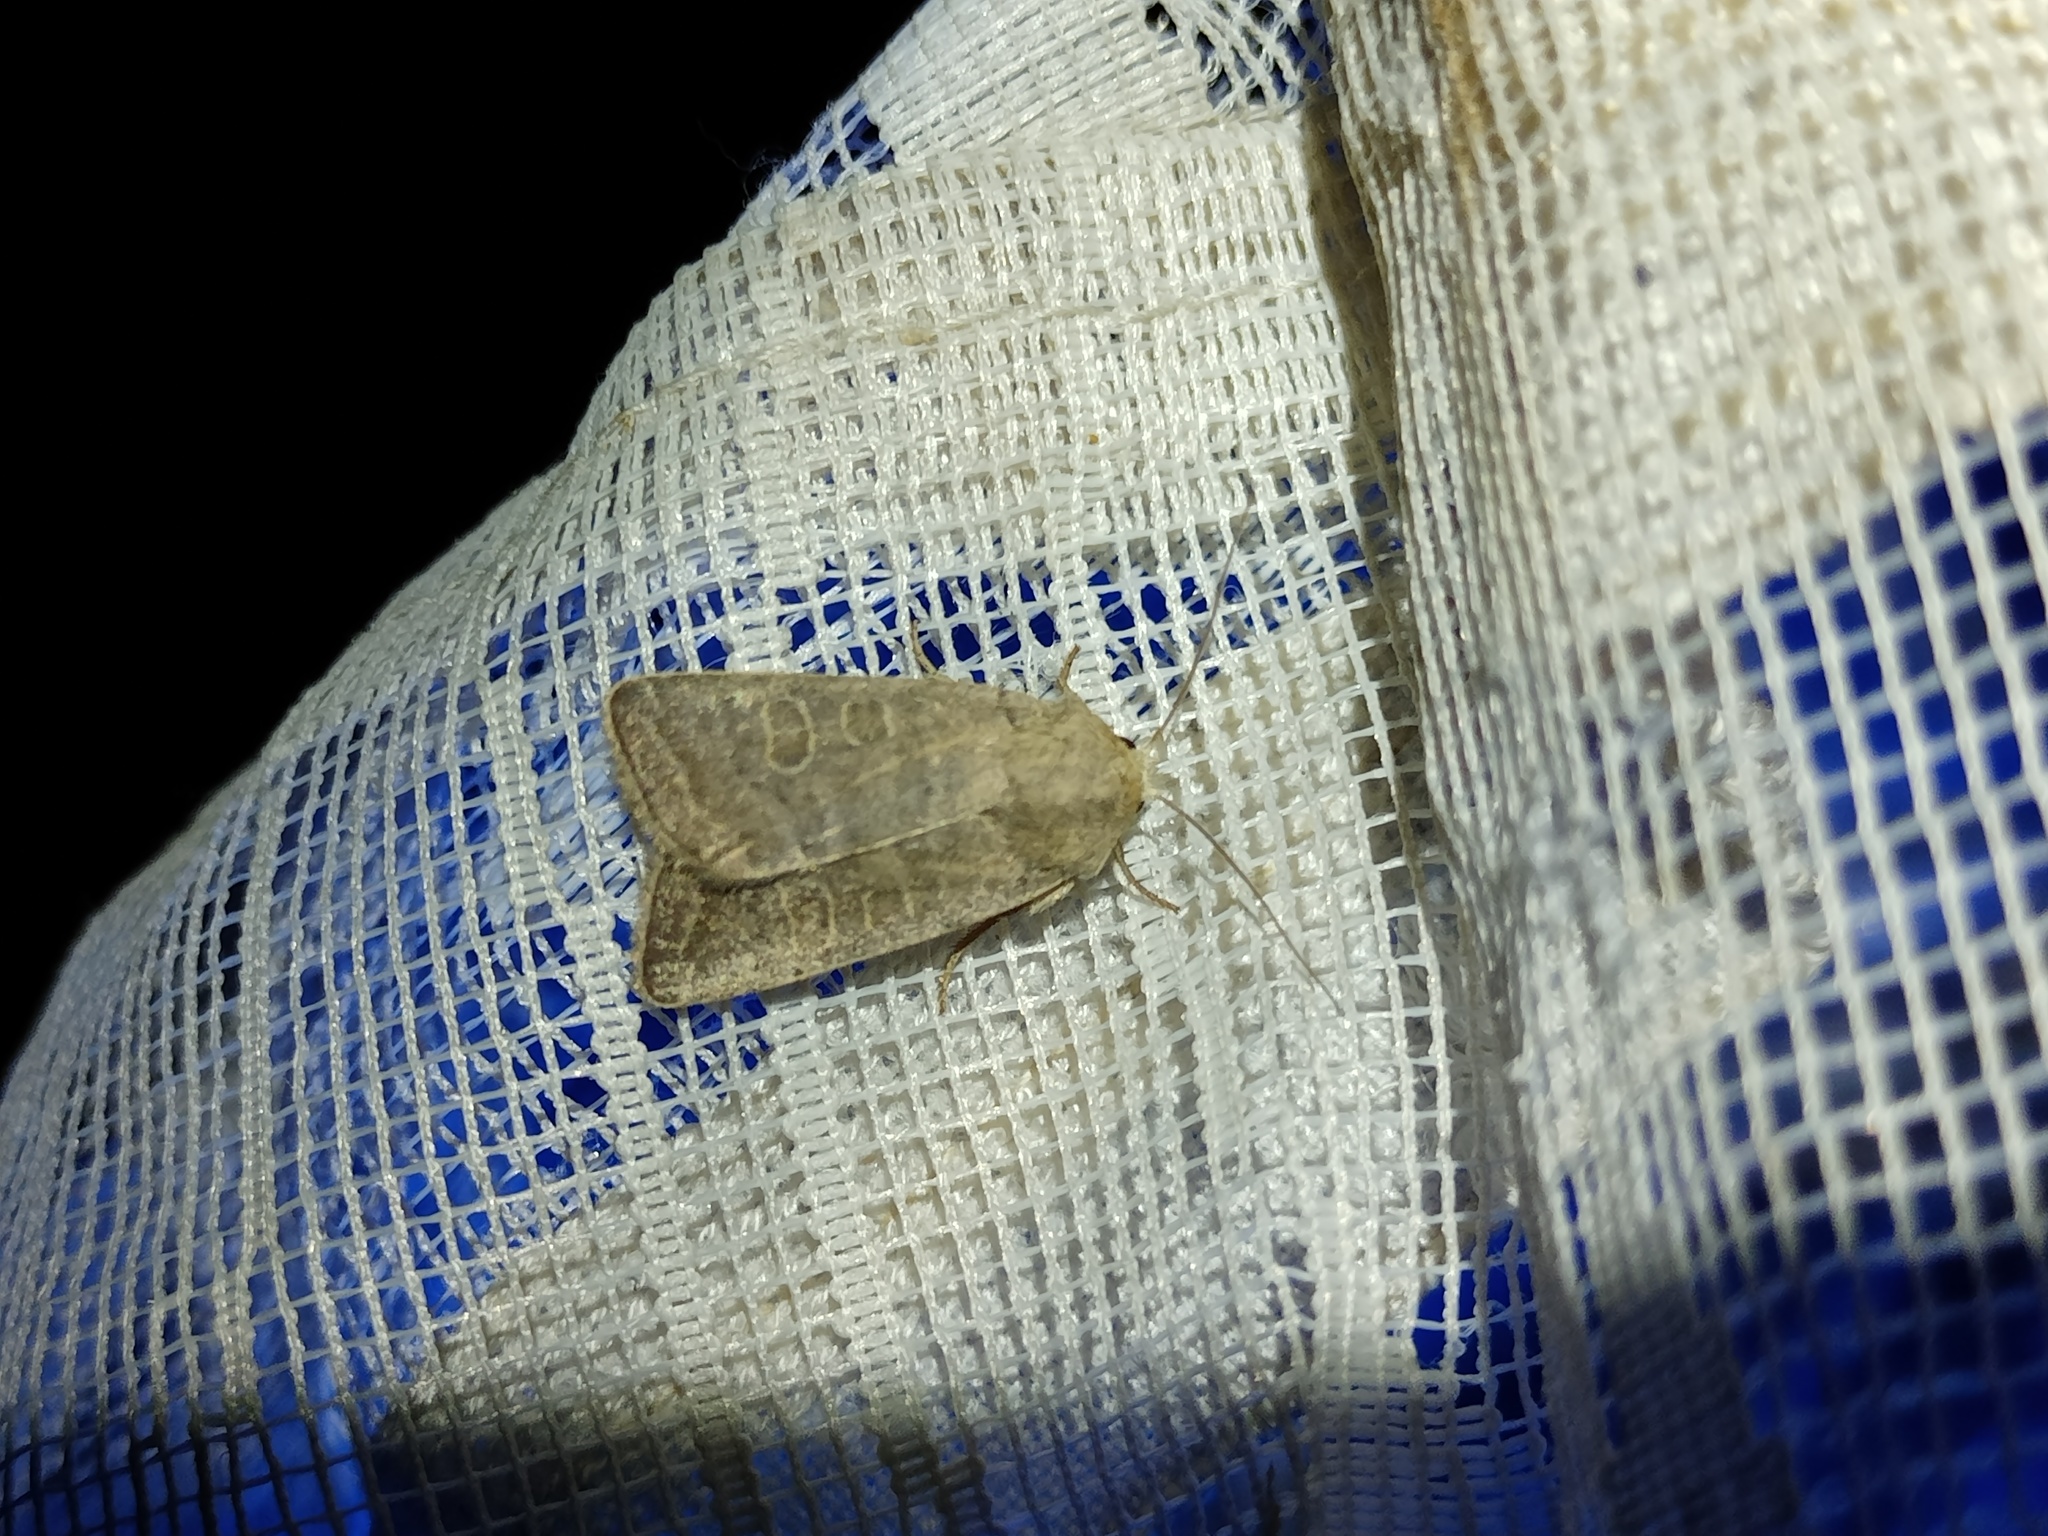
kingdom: Animalia
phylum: Arthropoda
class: Insecta
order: Lepidoptera
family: Noctuidae
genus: Hoplodrina
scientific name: Hoplodrina ambigua
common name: Vine's rustic
